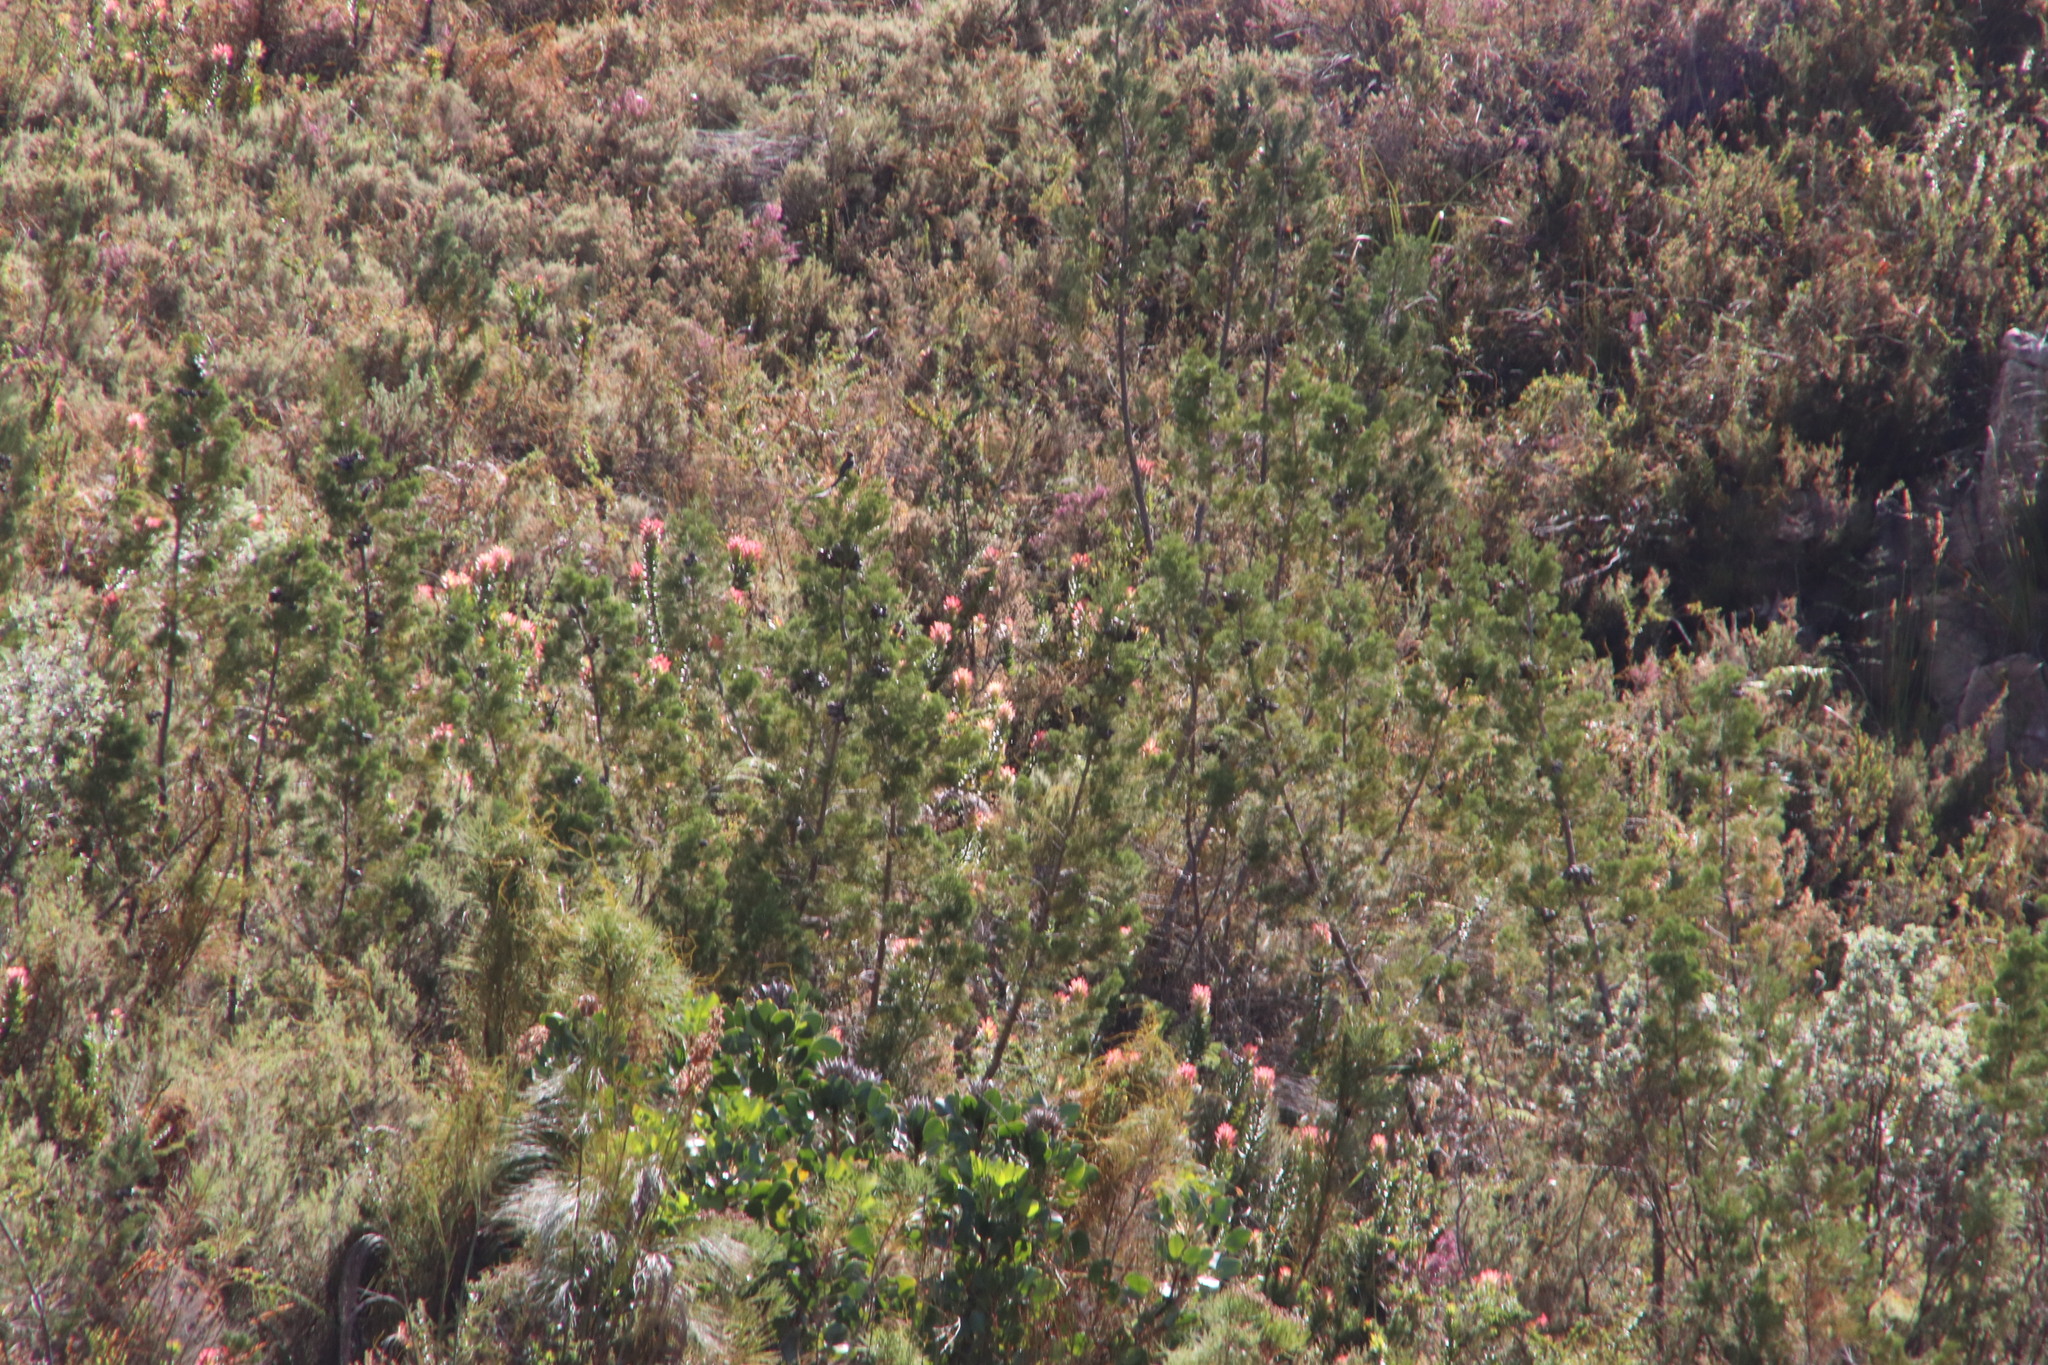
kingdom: Plantae
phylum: Tracheophyta
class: Magnoliopsida
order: Proteales
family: Proteaceae
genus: Mimetes
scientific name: Mimetes cucullatus
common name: Common pagoda
